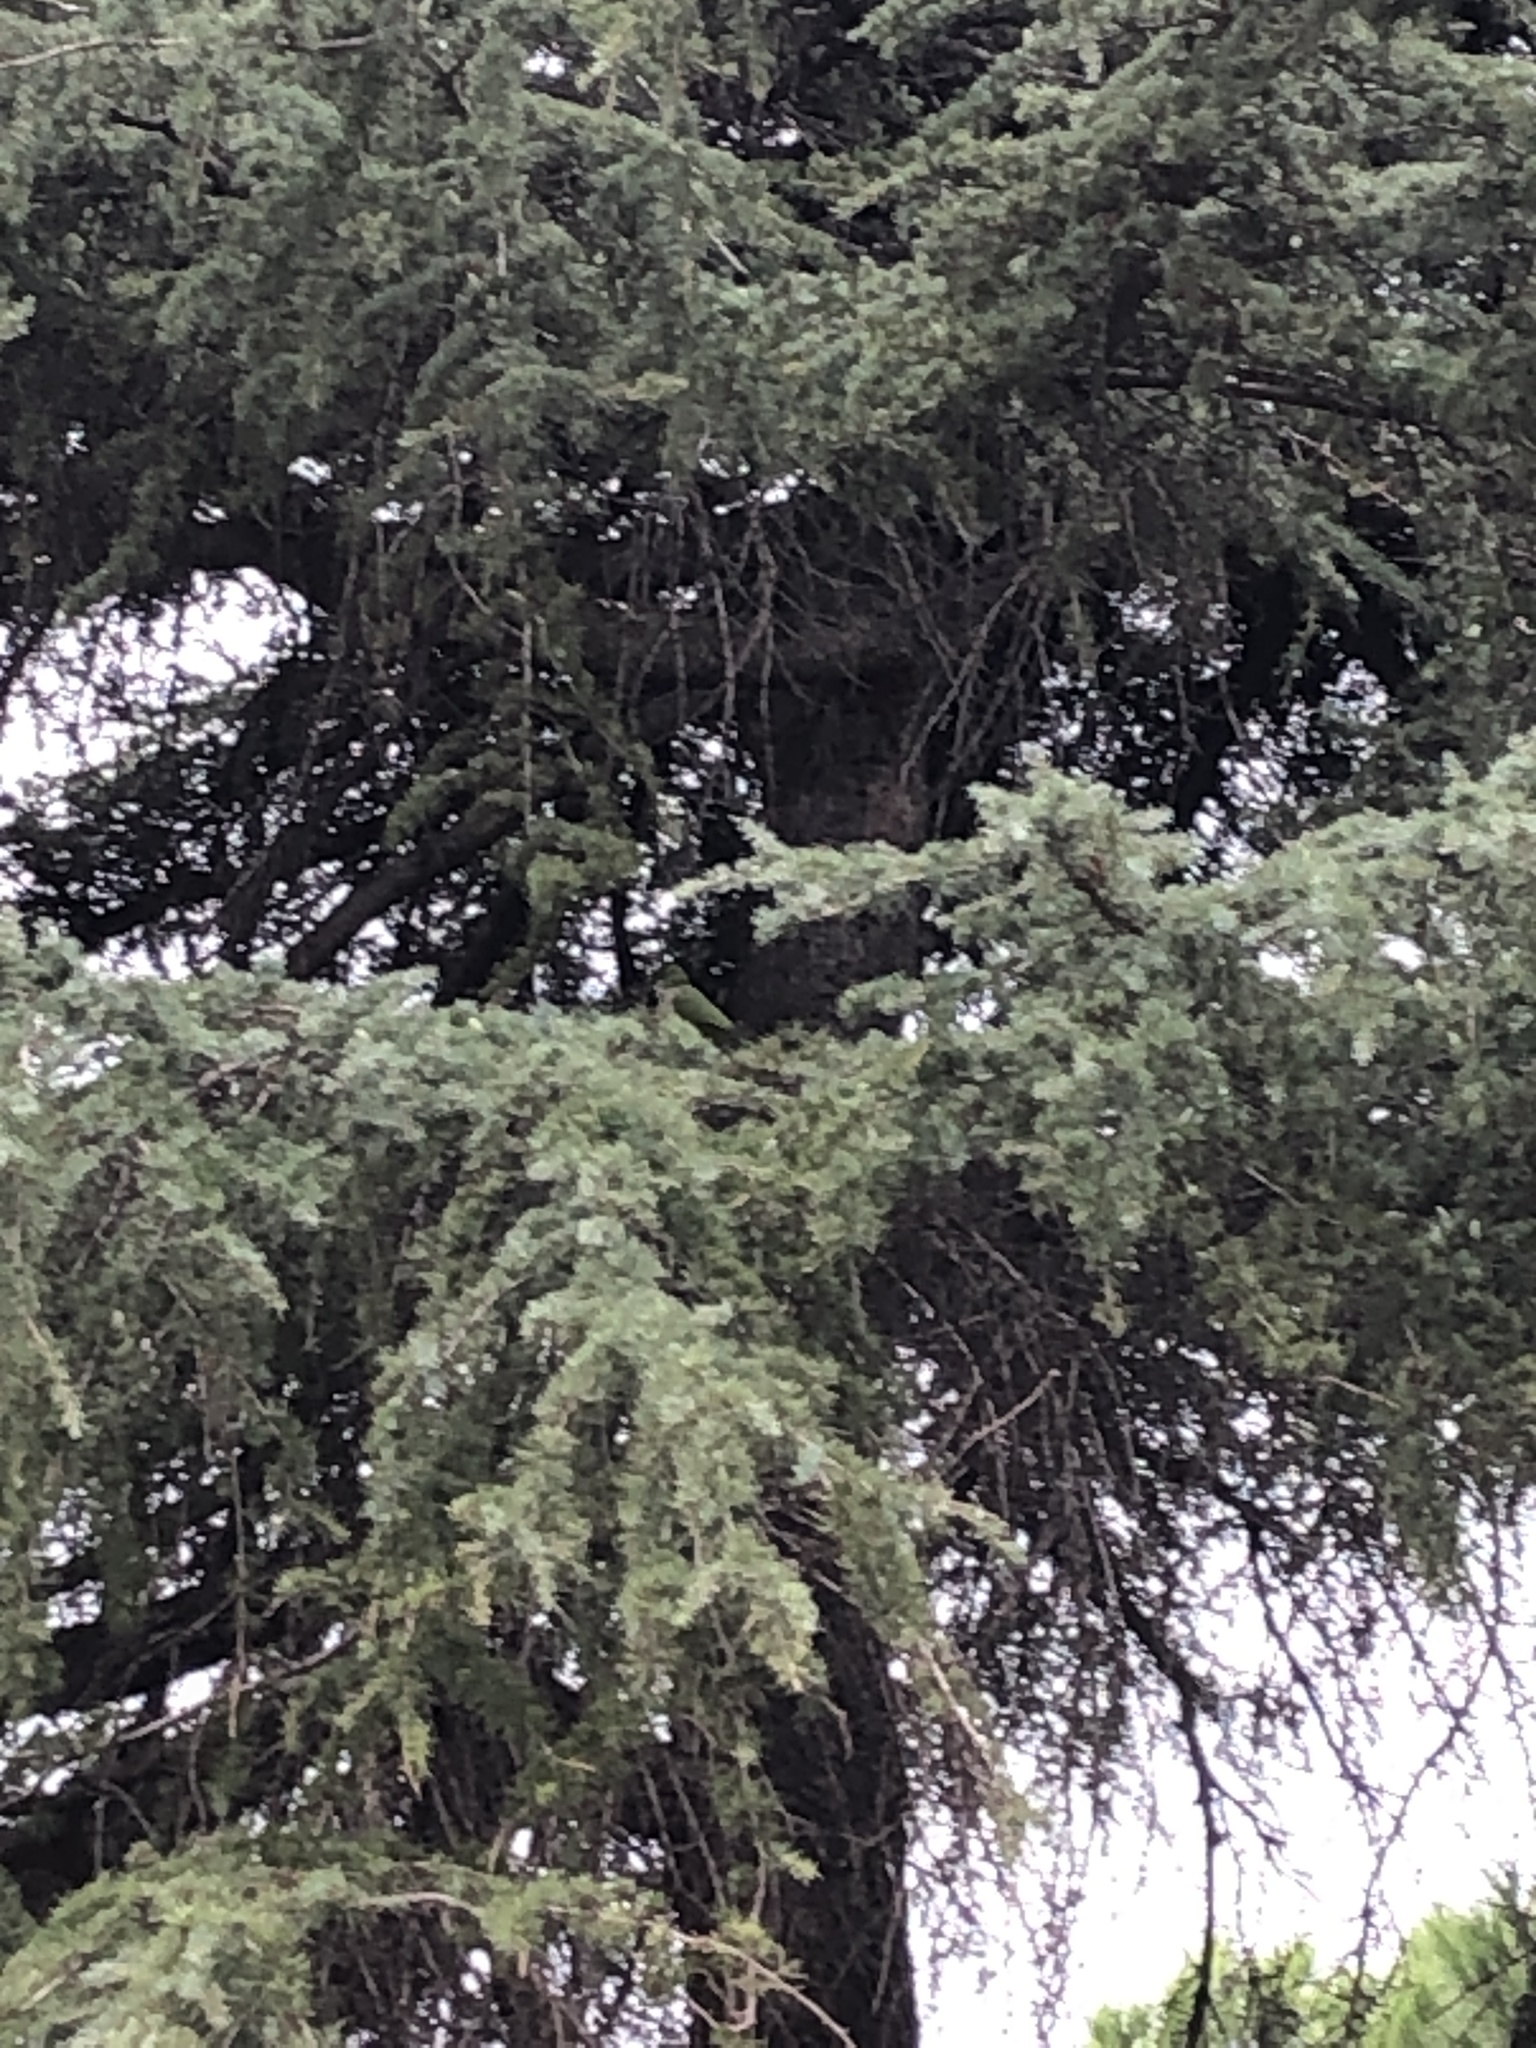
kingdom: Animalia
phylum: Chordata
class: Aves
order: Psittaciformes
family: Psittacidae
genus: Myiopsitta
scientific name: Myiopsitta monachus
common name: Monk parakeet
